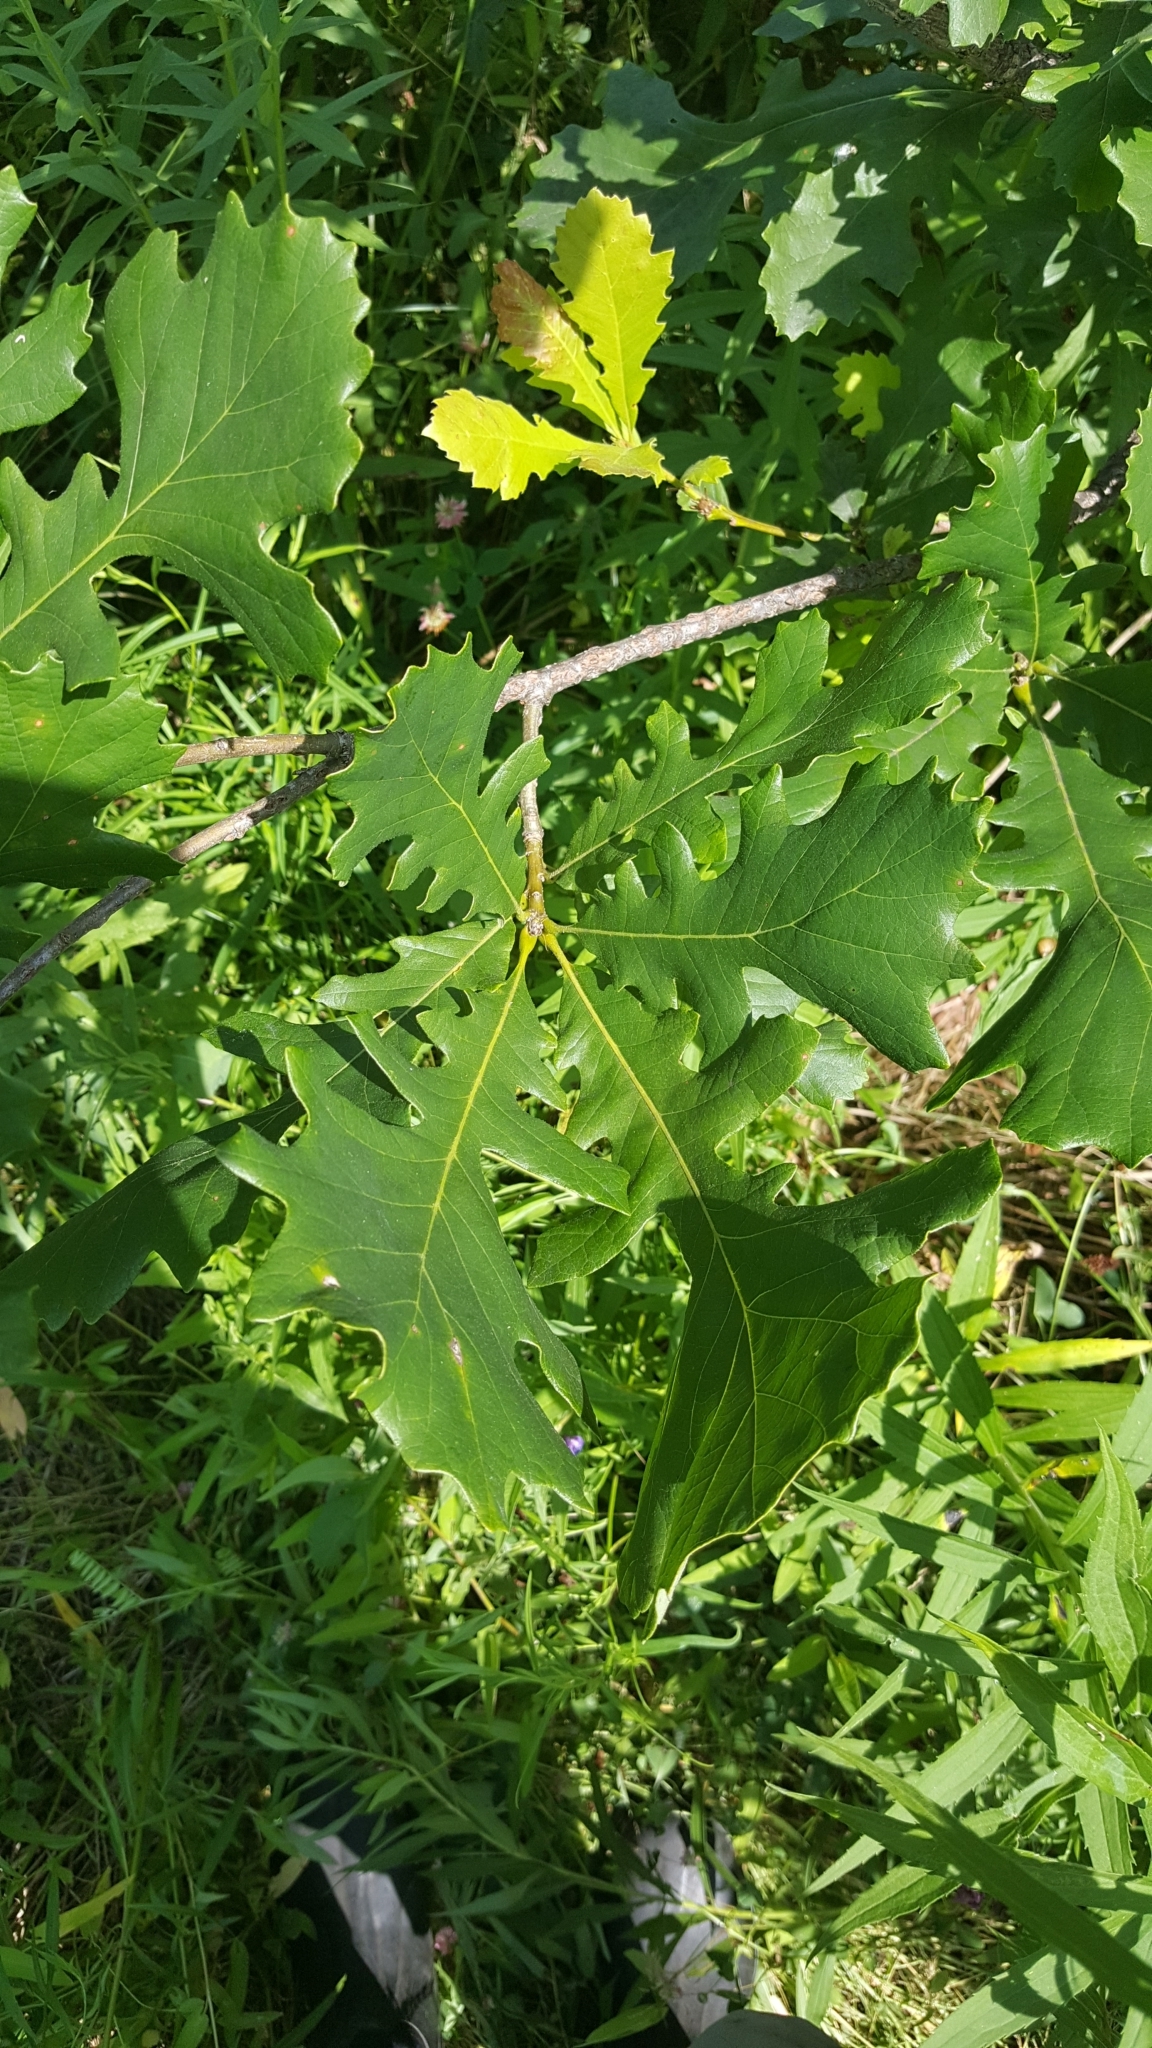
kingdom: Plantae
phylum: Tracheophyta
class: Magnoliopsida
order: Fagales
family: Fagaceae
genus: Quercus
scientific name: Quercus macrocarpa
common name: Bur oak
